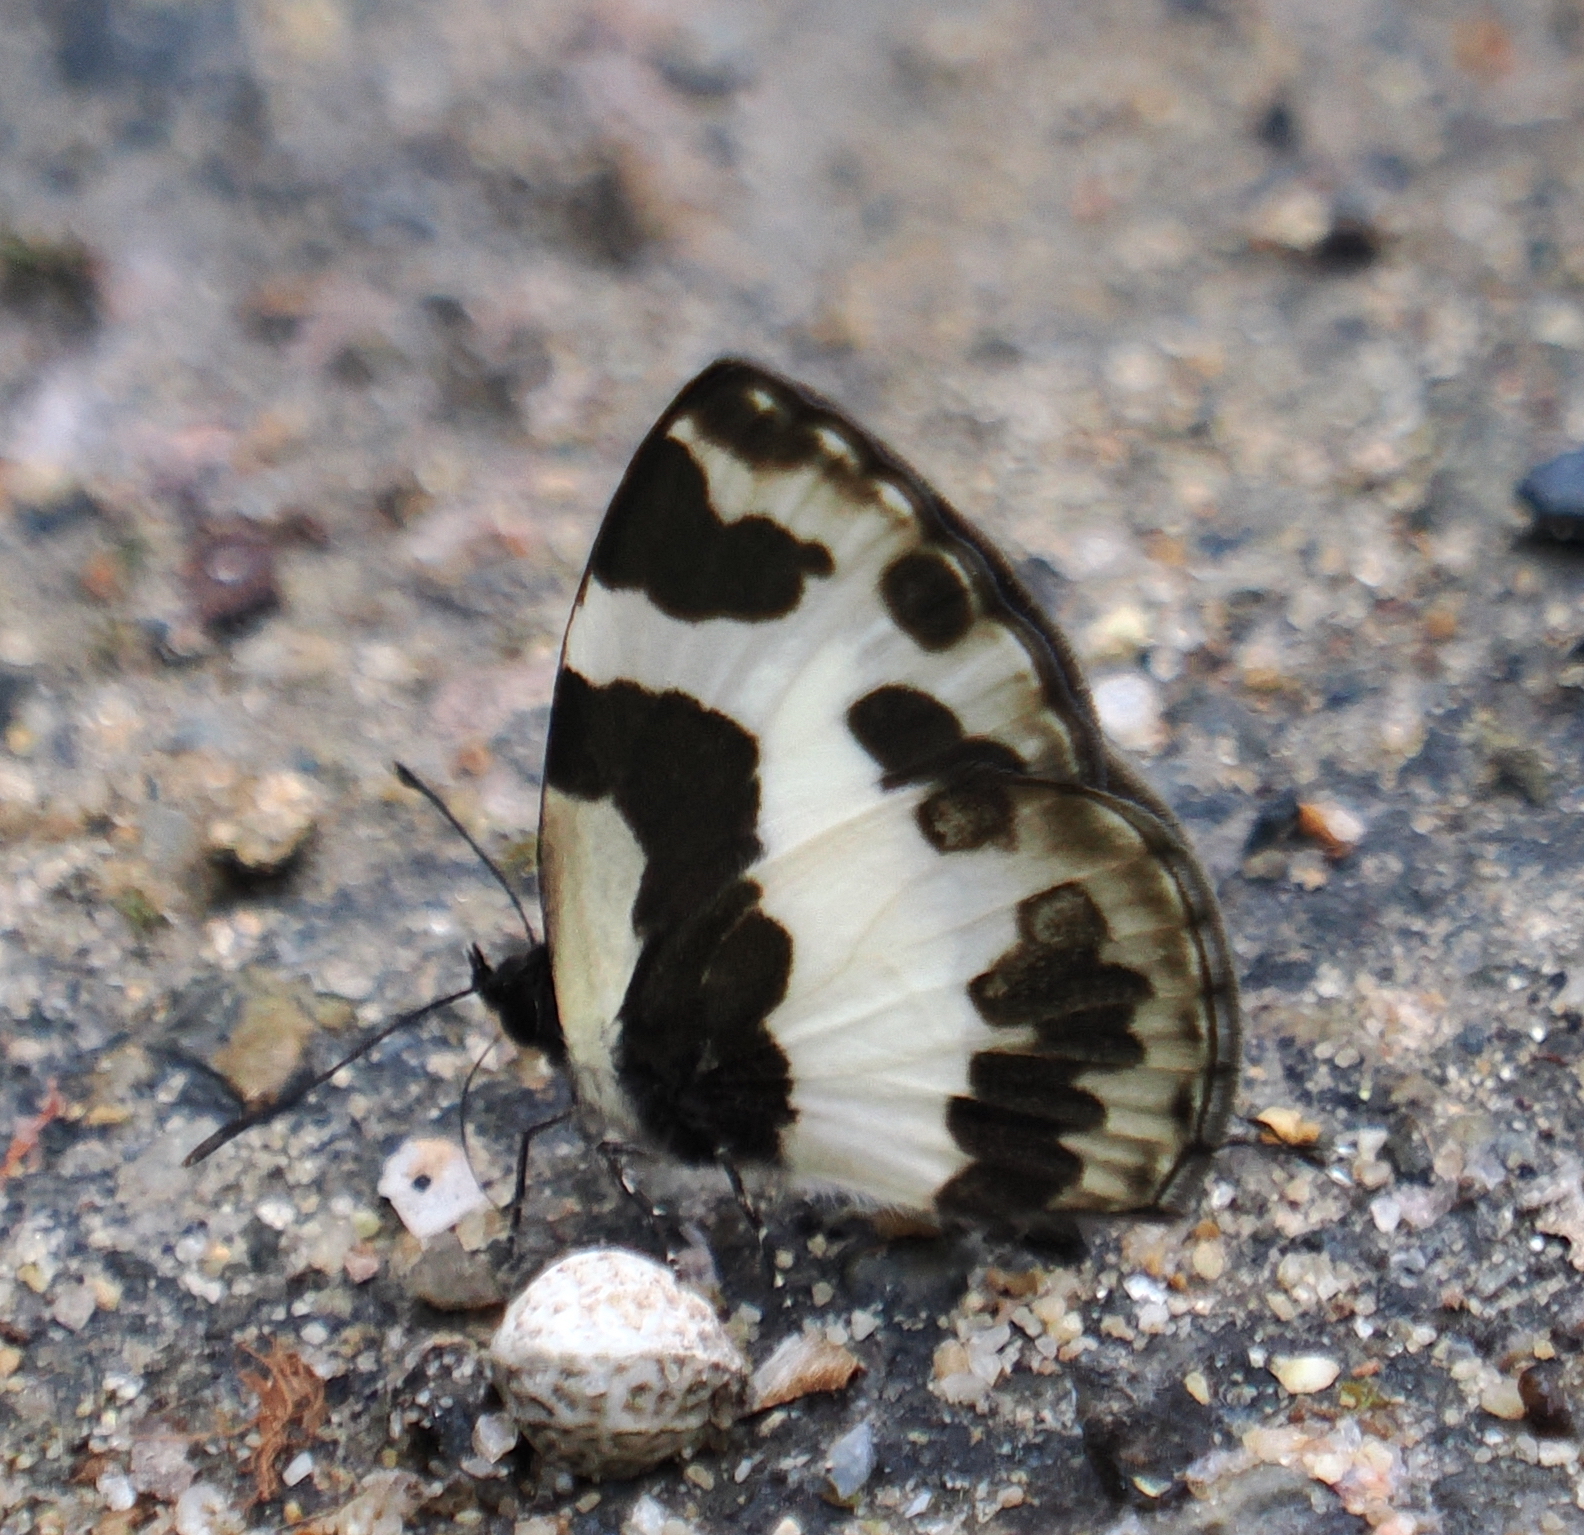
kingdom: Animalia
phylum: Arthropoda
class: Insecta
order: Lepidoptera
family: Lycaenidae
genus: Caleta
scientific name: Caleta elna
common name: Elbowed pierrot
